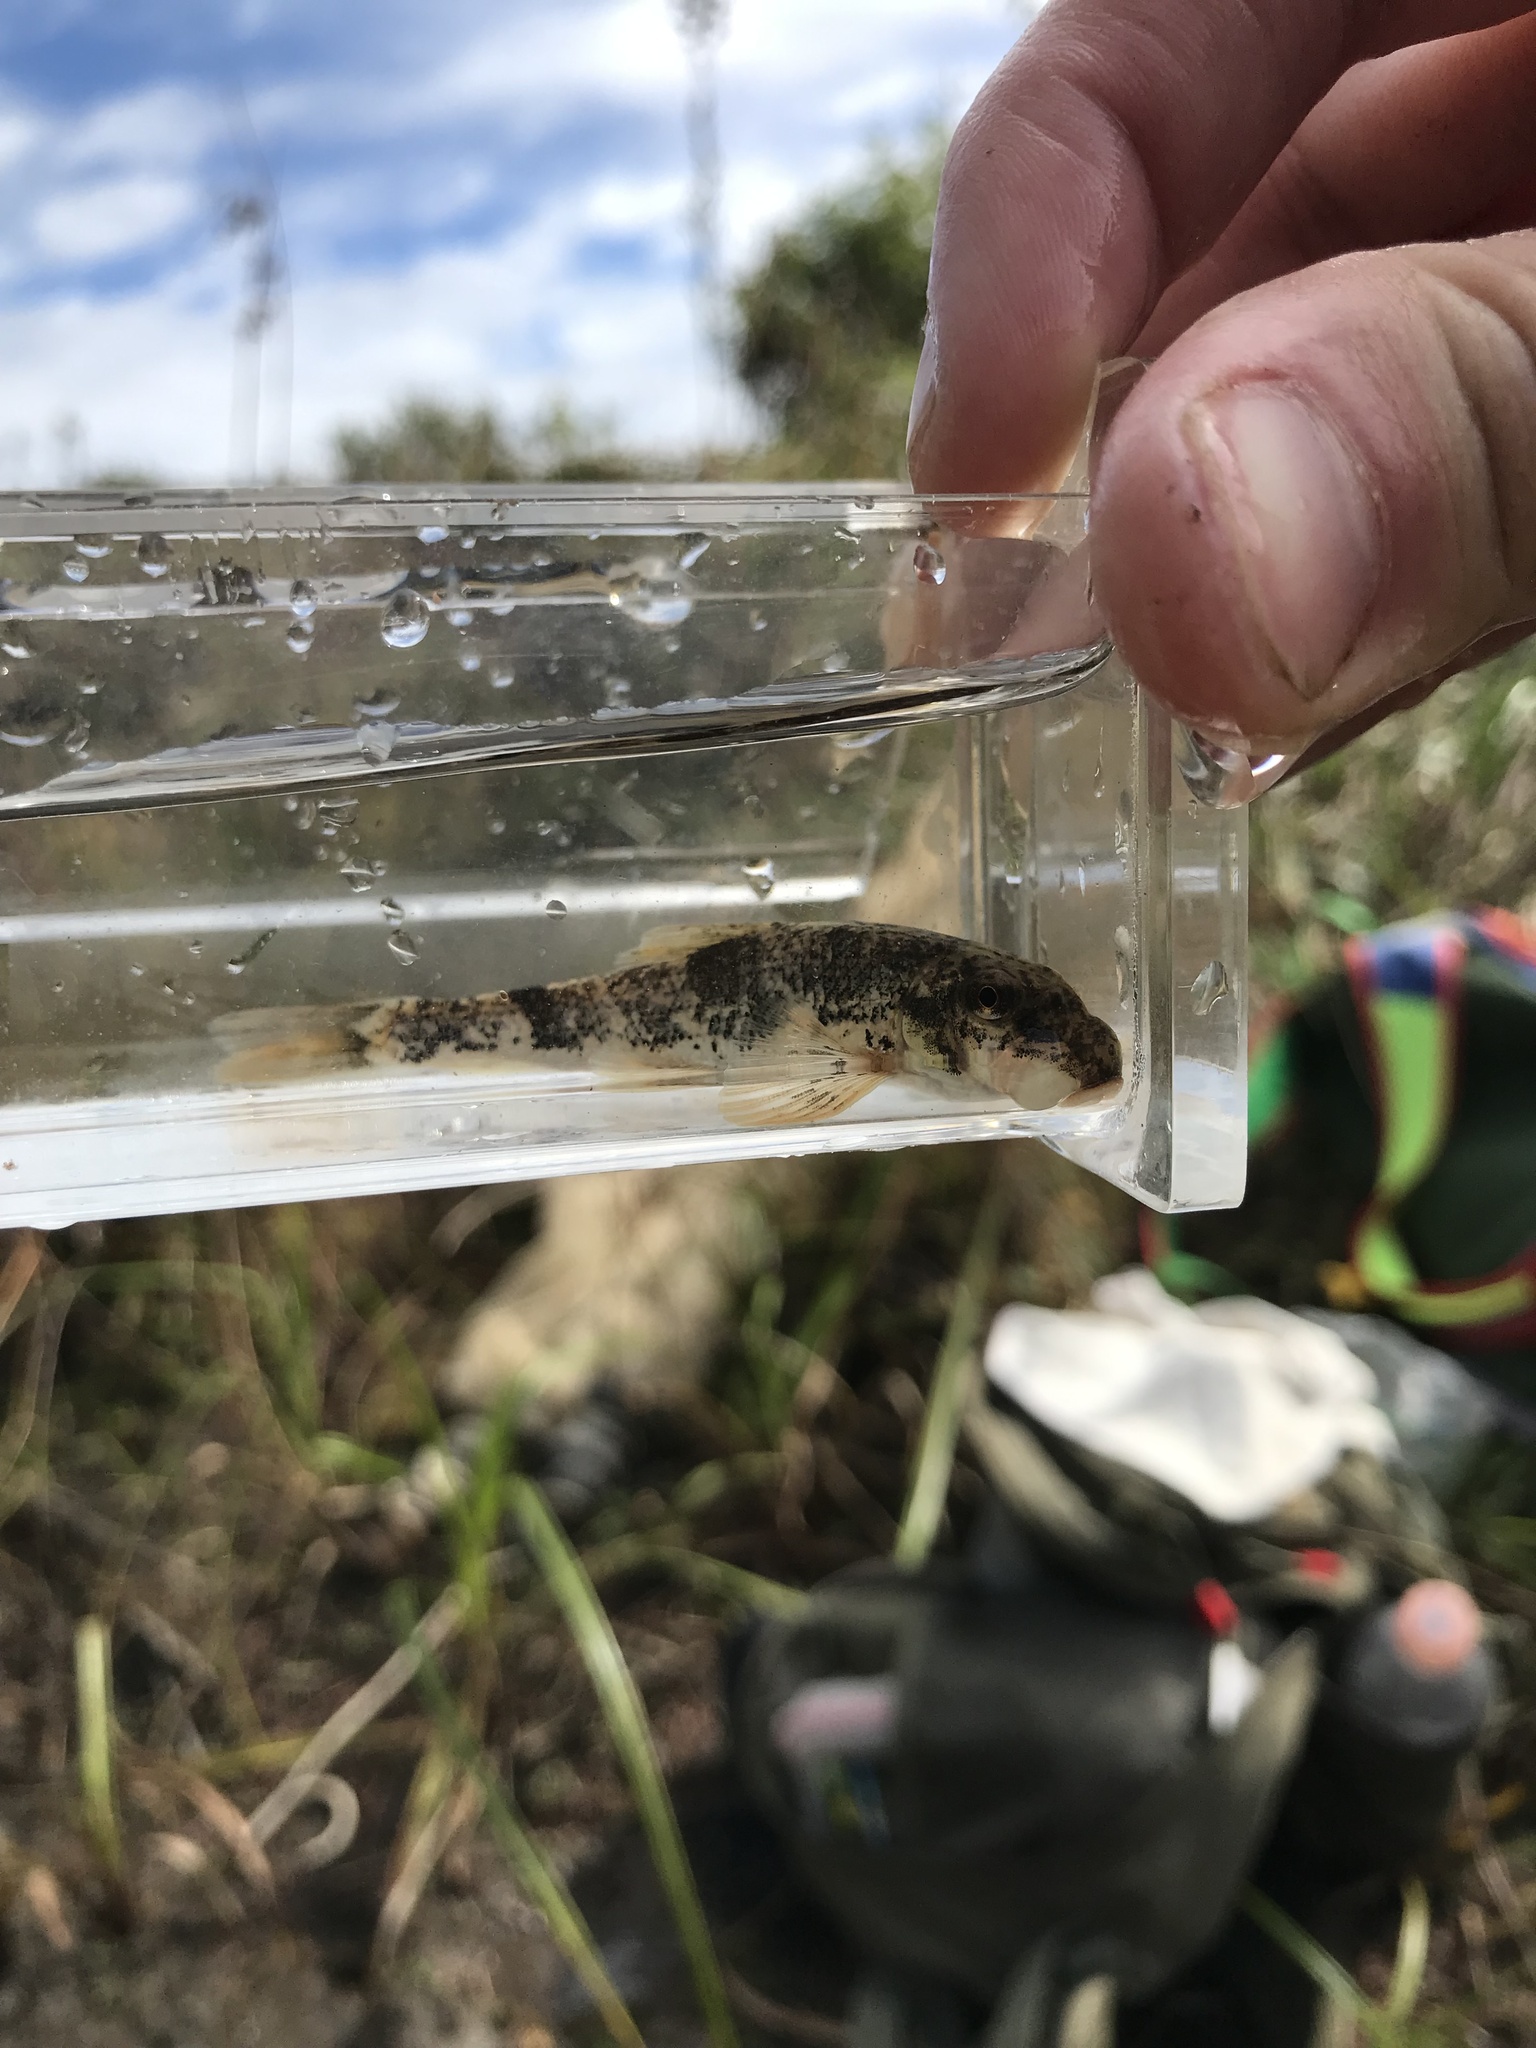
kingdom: Animalia
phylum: Chordata
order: Cypriniformes
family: Catostomidae
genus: Hypentelium
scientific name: Hypentelium nigricans
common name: Northern hog sucker
